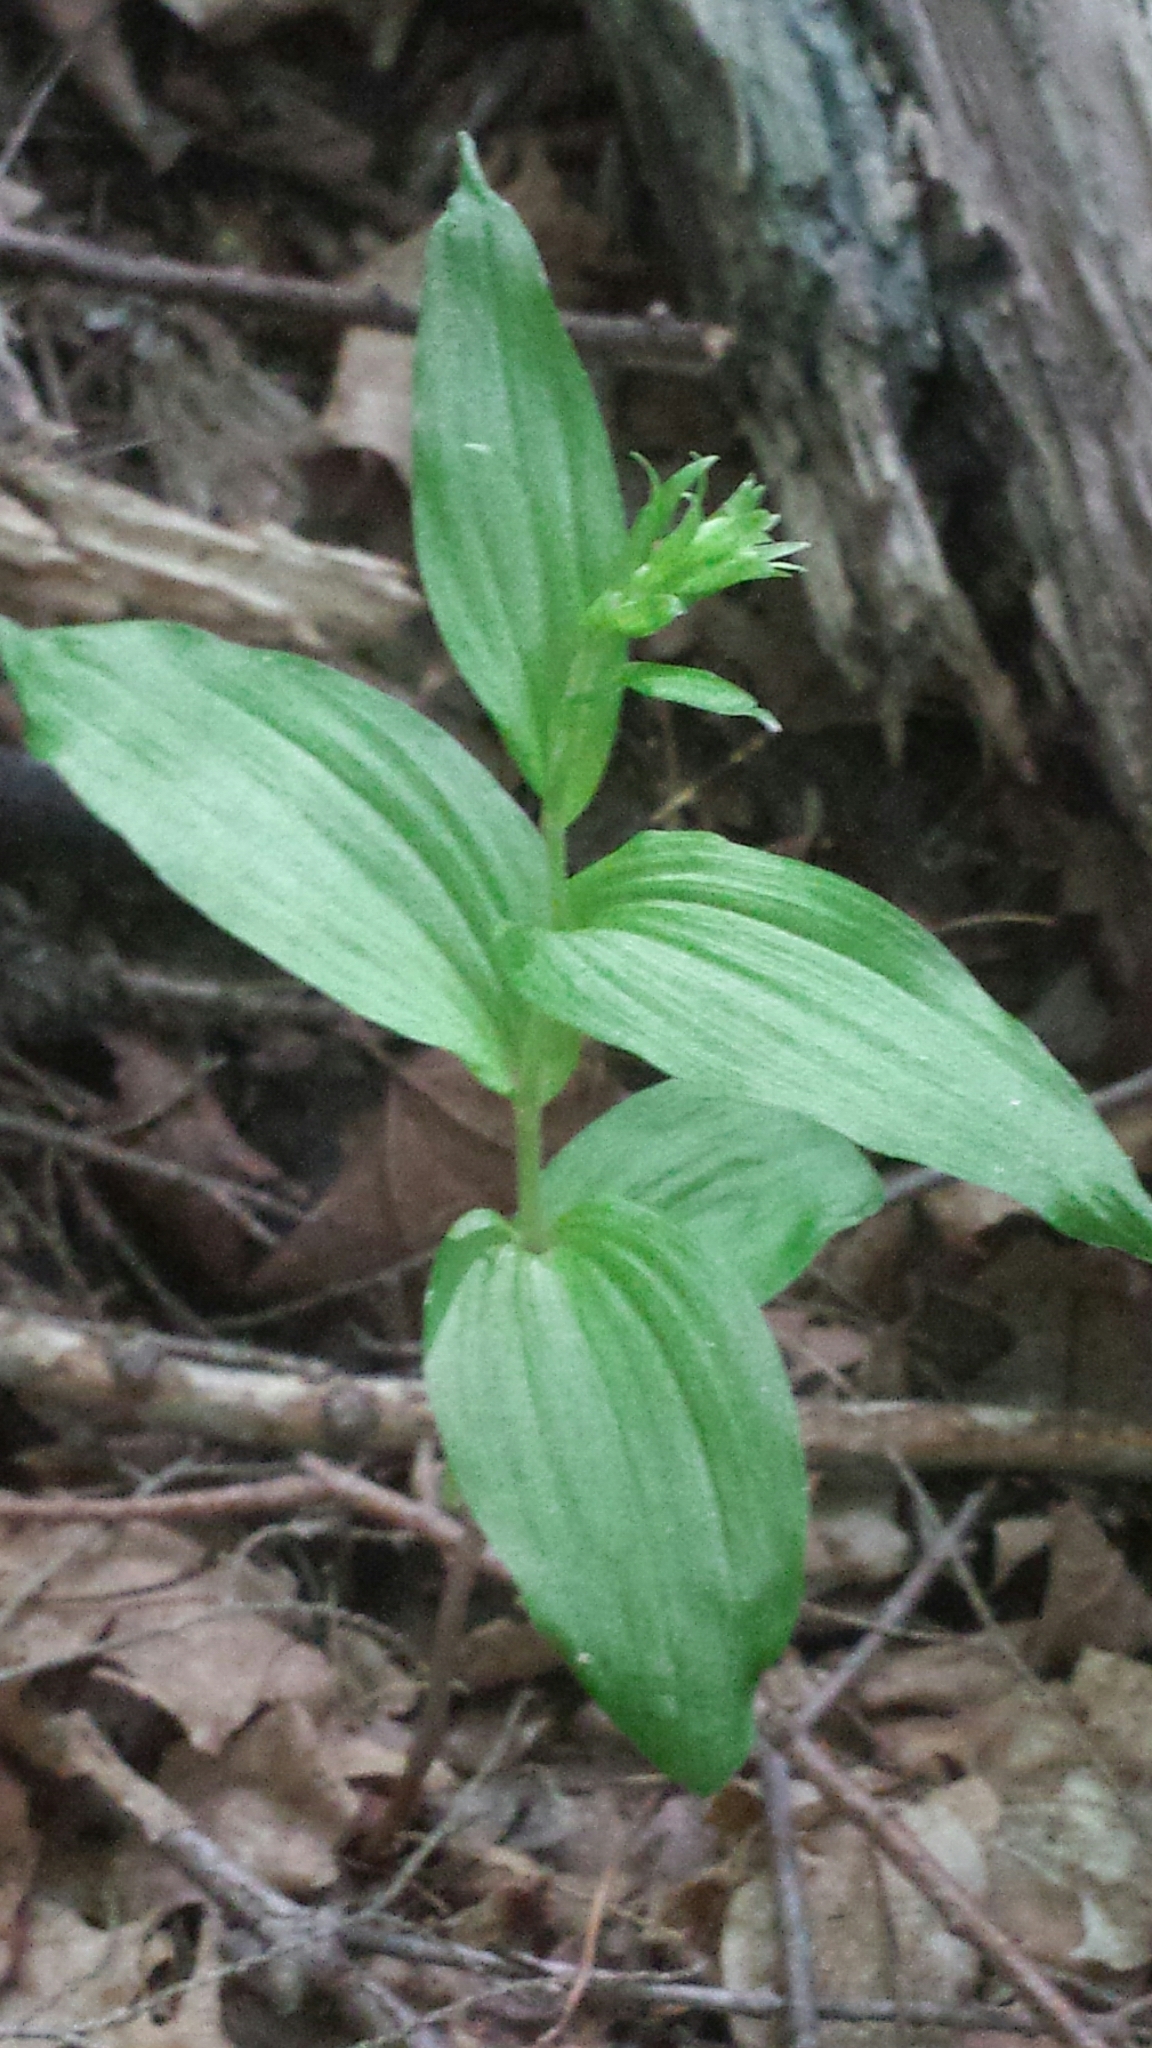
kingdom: Plantae
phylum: Tracheophyta
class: Liliopsida
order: Asparagales
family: Orchidaceae
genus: Epipactis
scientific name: Epipactis helleborine
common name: Broad-leaved helleborine
